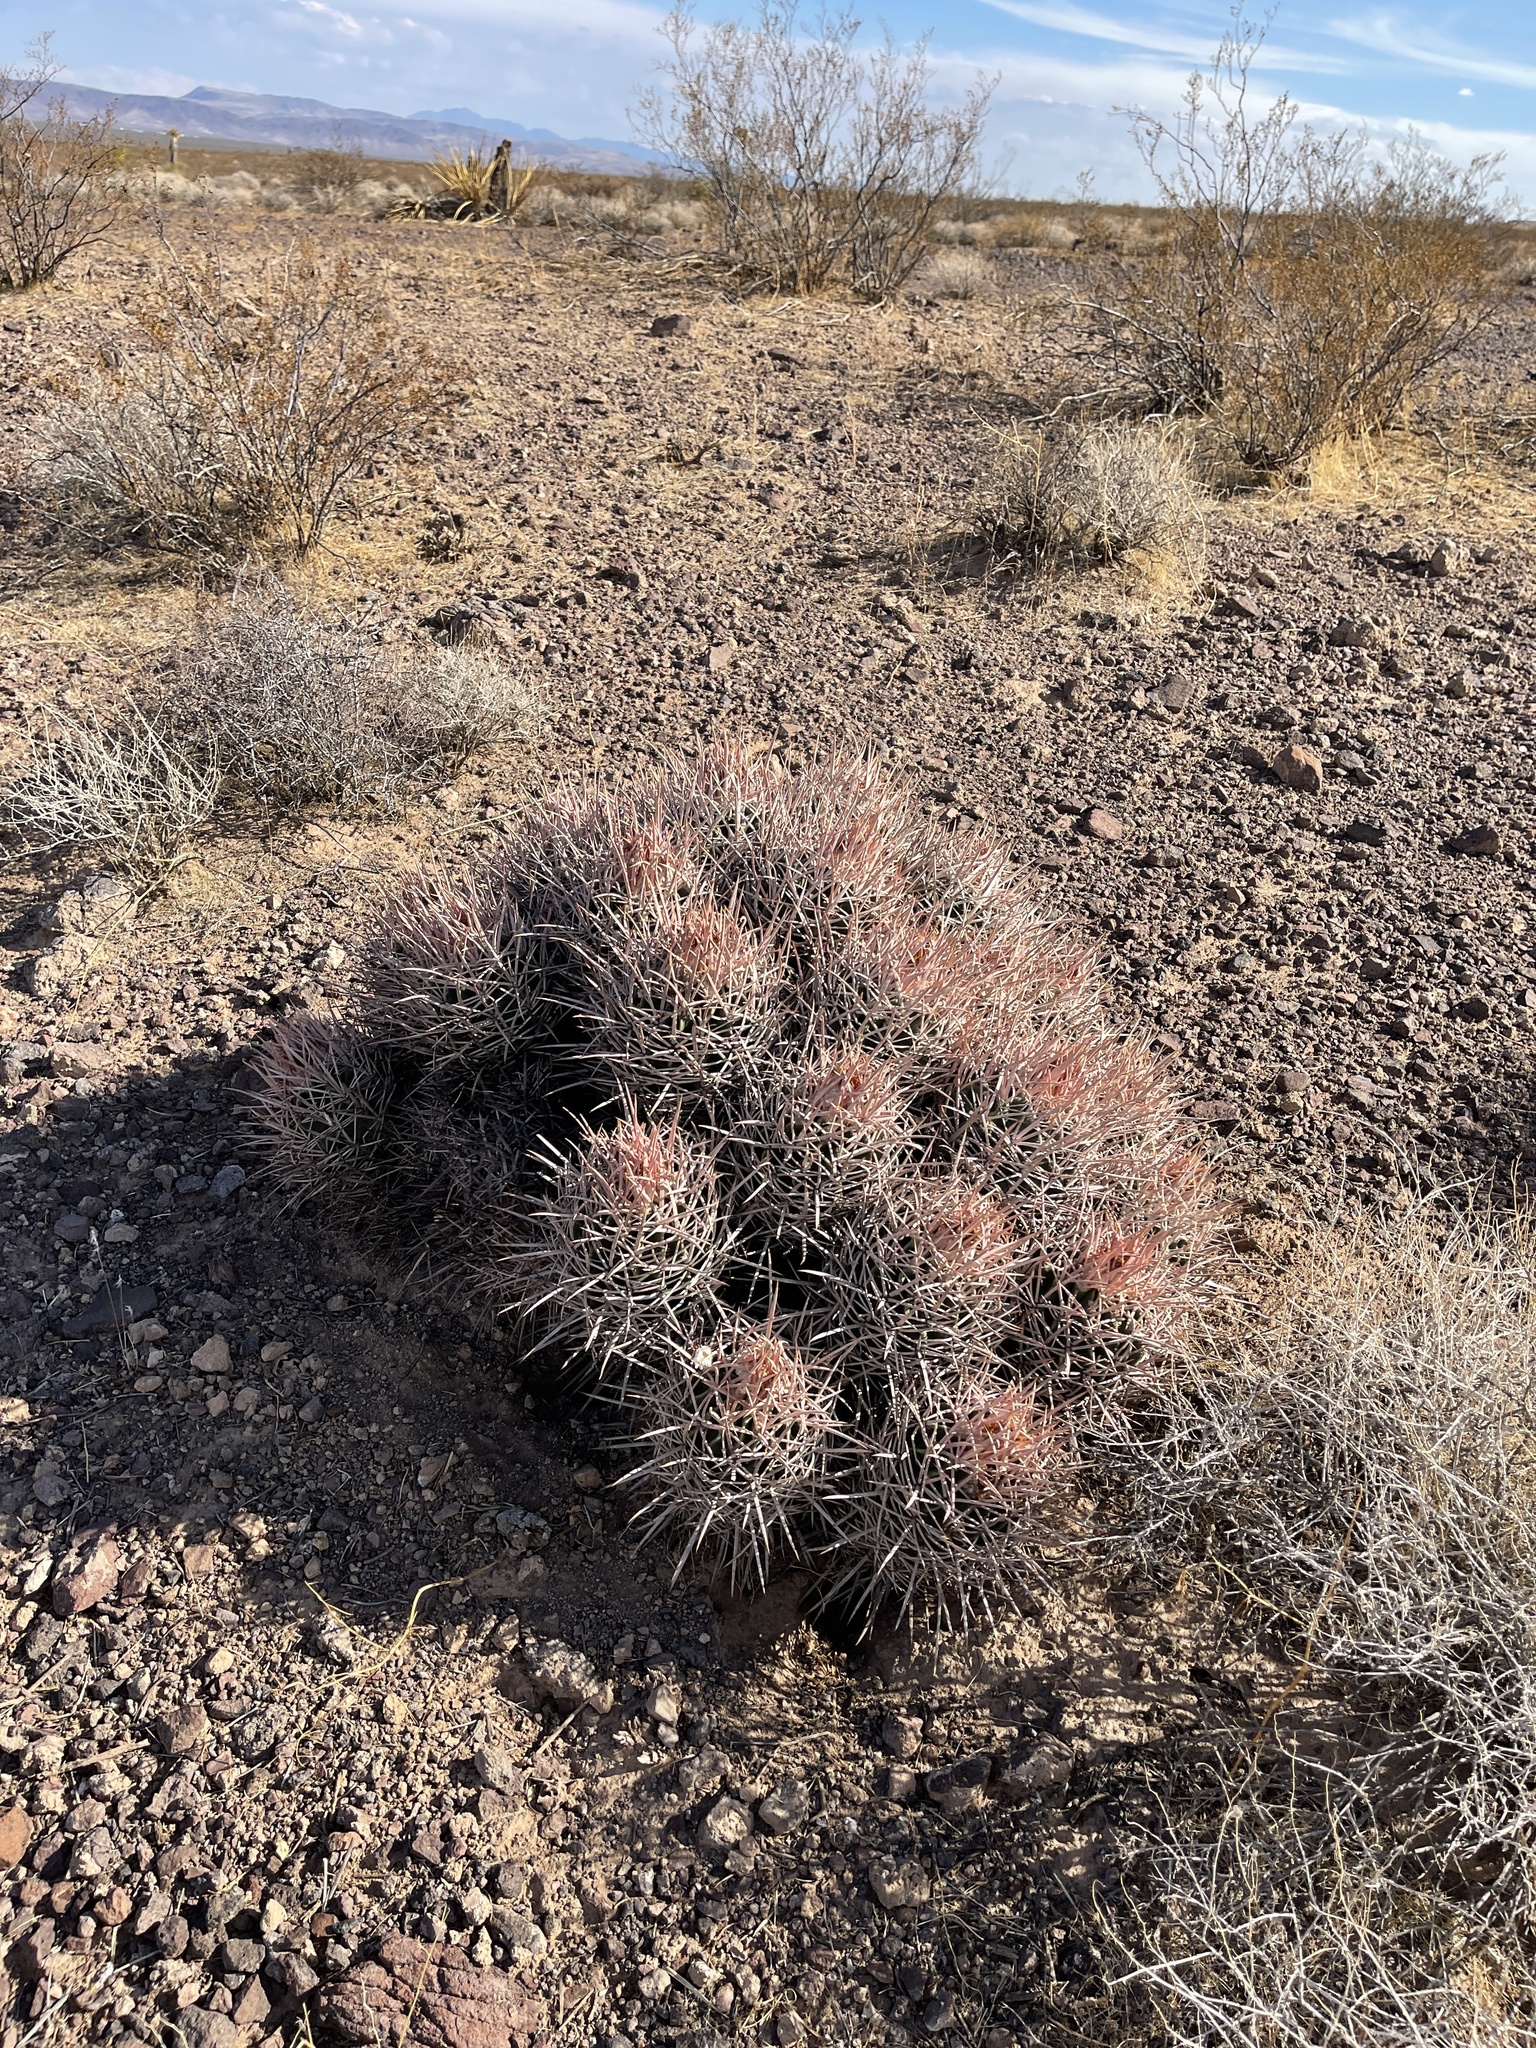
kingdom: Plantae
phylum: Tracheophyta
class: Magnoliopsida
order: Caryophyllales
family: Cactaceae
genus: Echinocactus
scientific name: Echinocactus polycephalus
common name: Cottontop cactus
